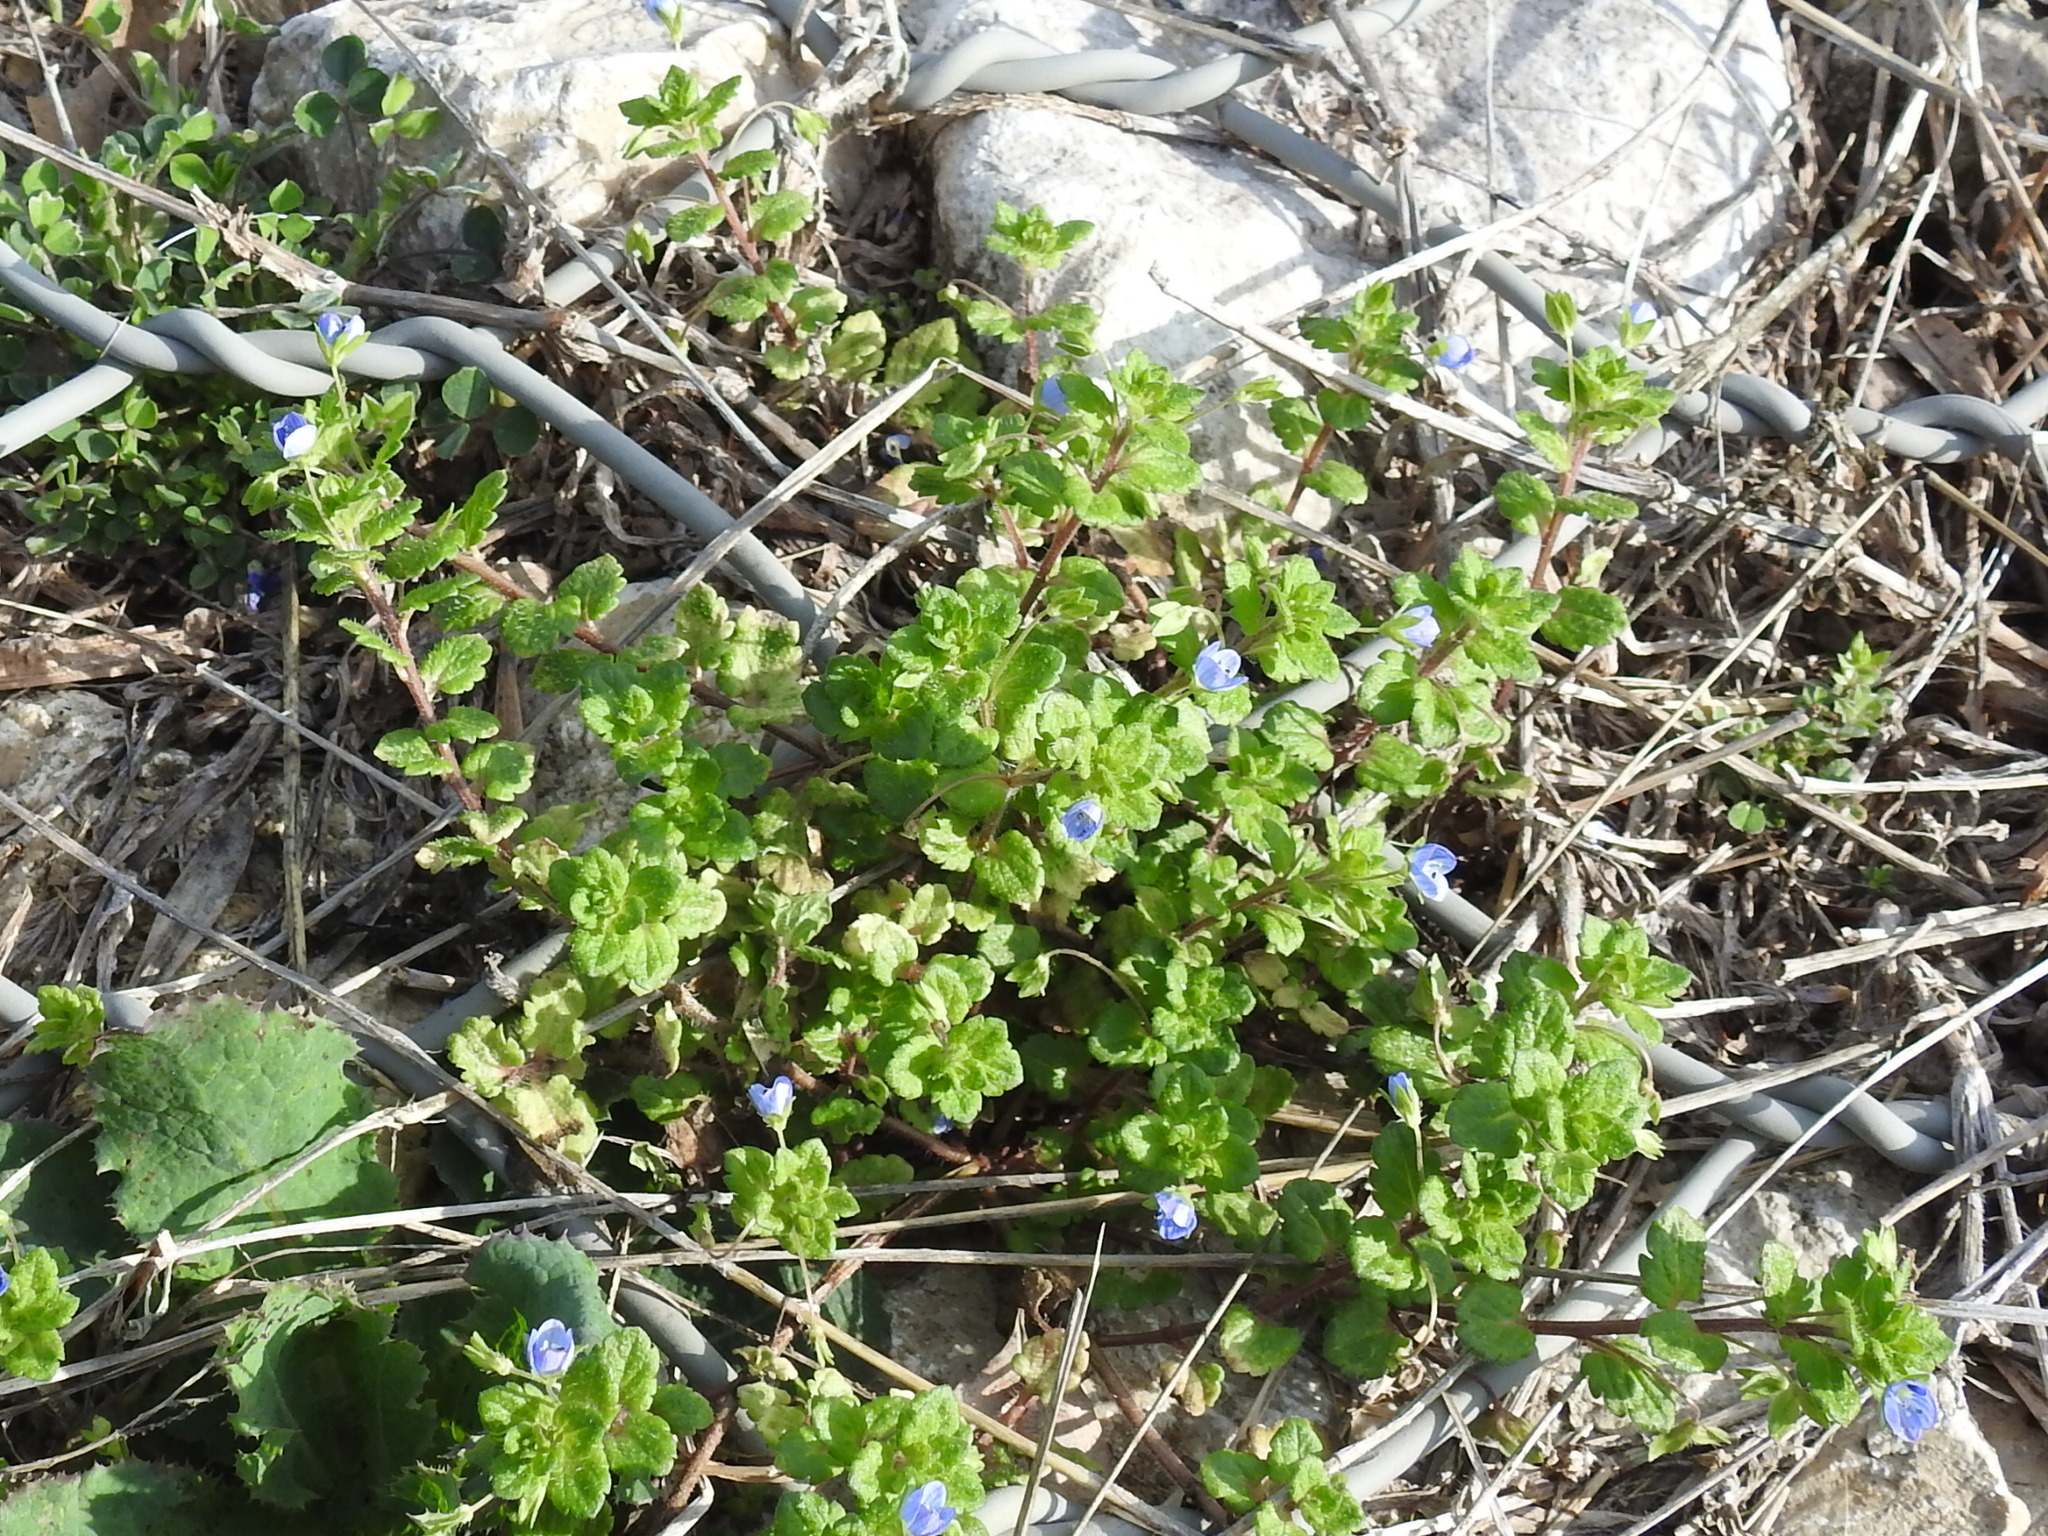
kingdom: Plantae
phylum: Tracheophyta
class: Magnoliopsida
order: Lamiales
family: Plantaginaceae
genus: Veronica
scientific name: Veronica persica
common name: Common field-speedwell
